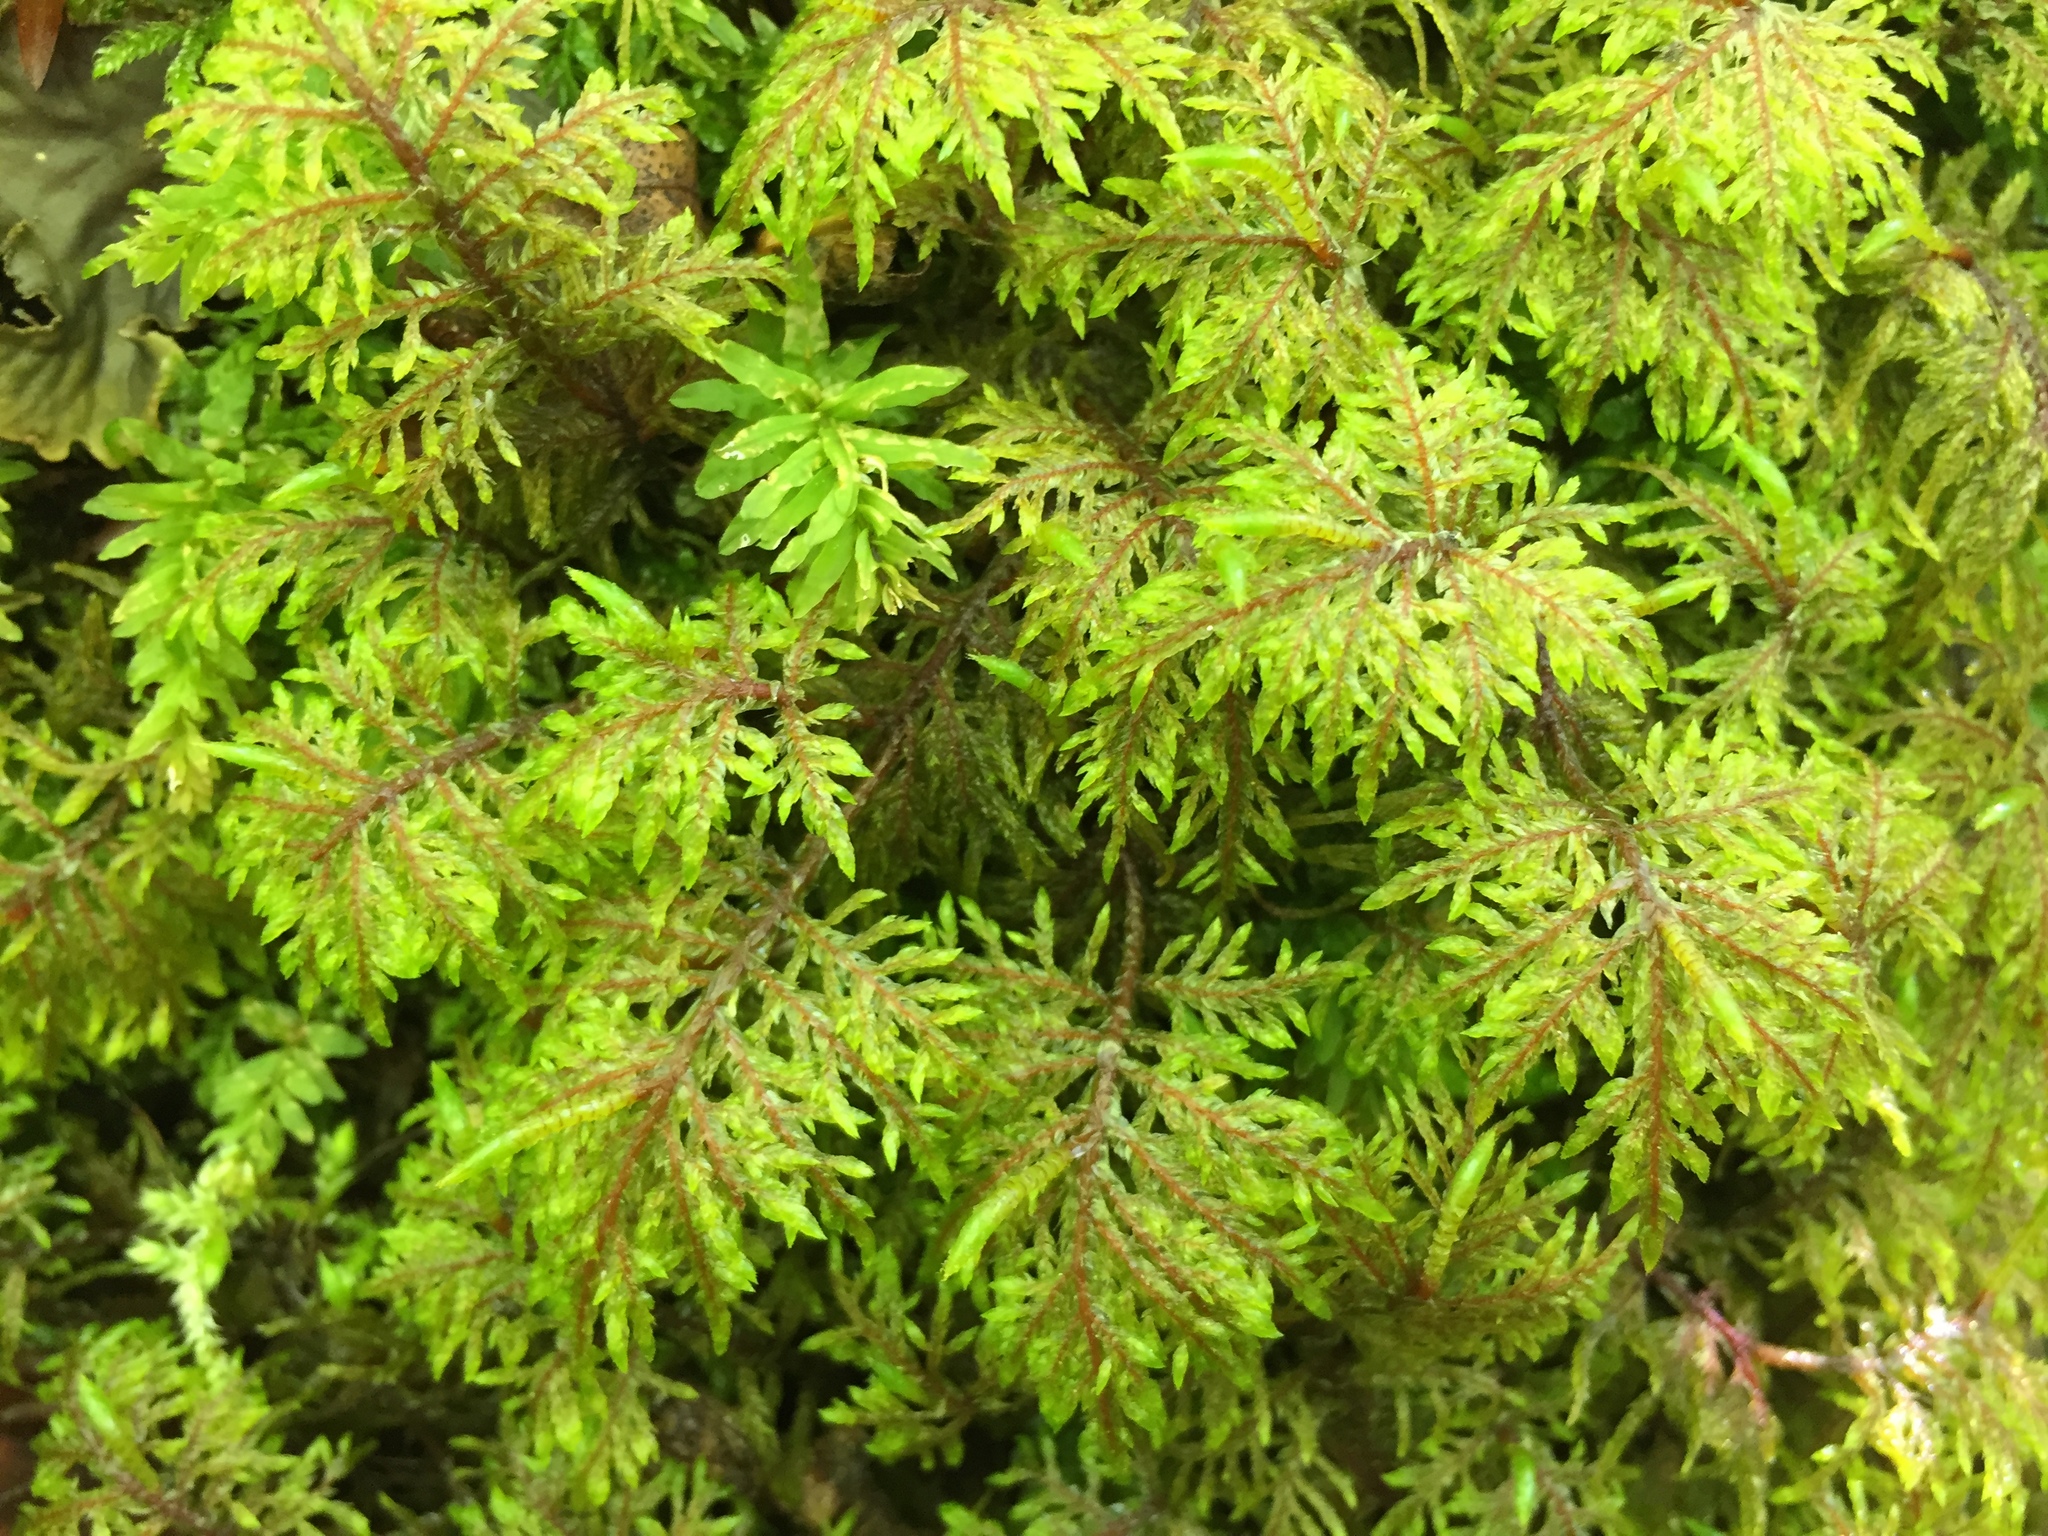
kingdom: Plantae
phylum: Bryophyta
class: Bryopsida
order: Hypnales
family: Hylocomiaceae
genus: Hylocomium
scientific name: Hylocomium splendens
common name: Stairstep moss
